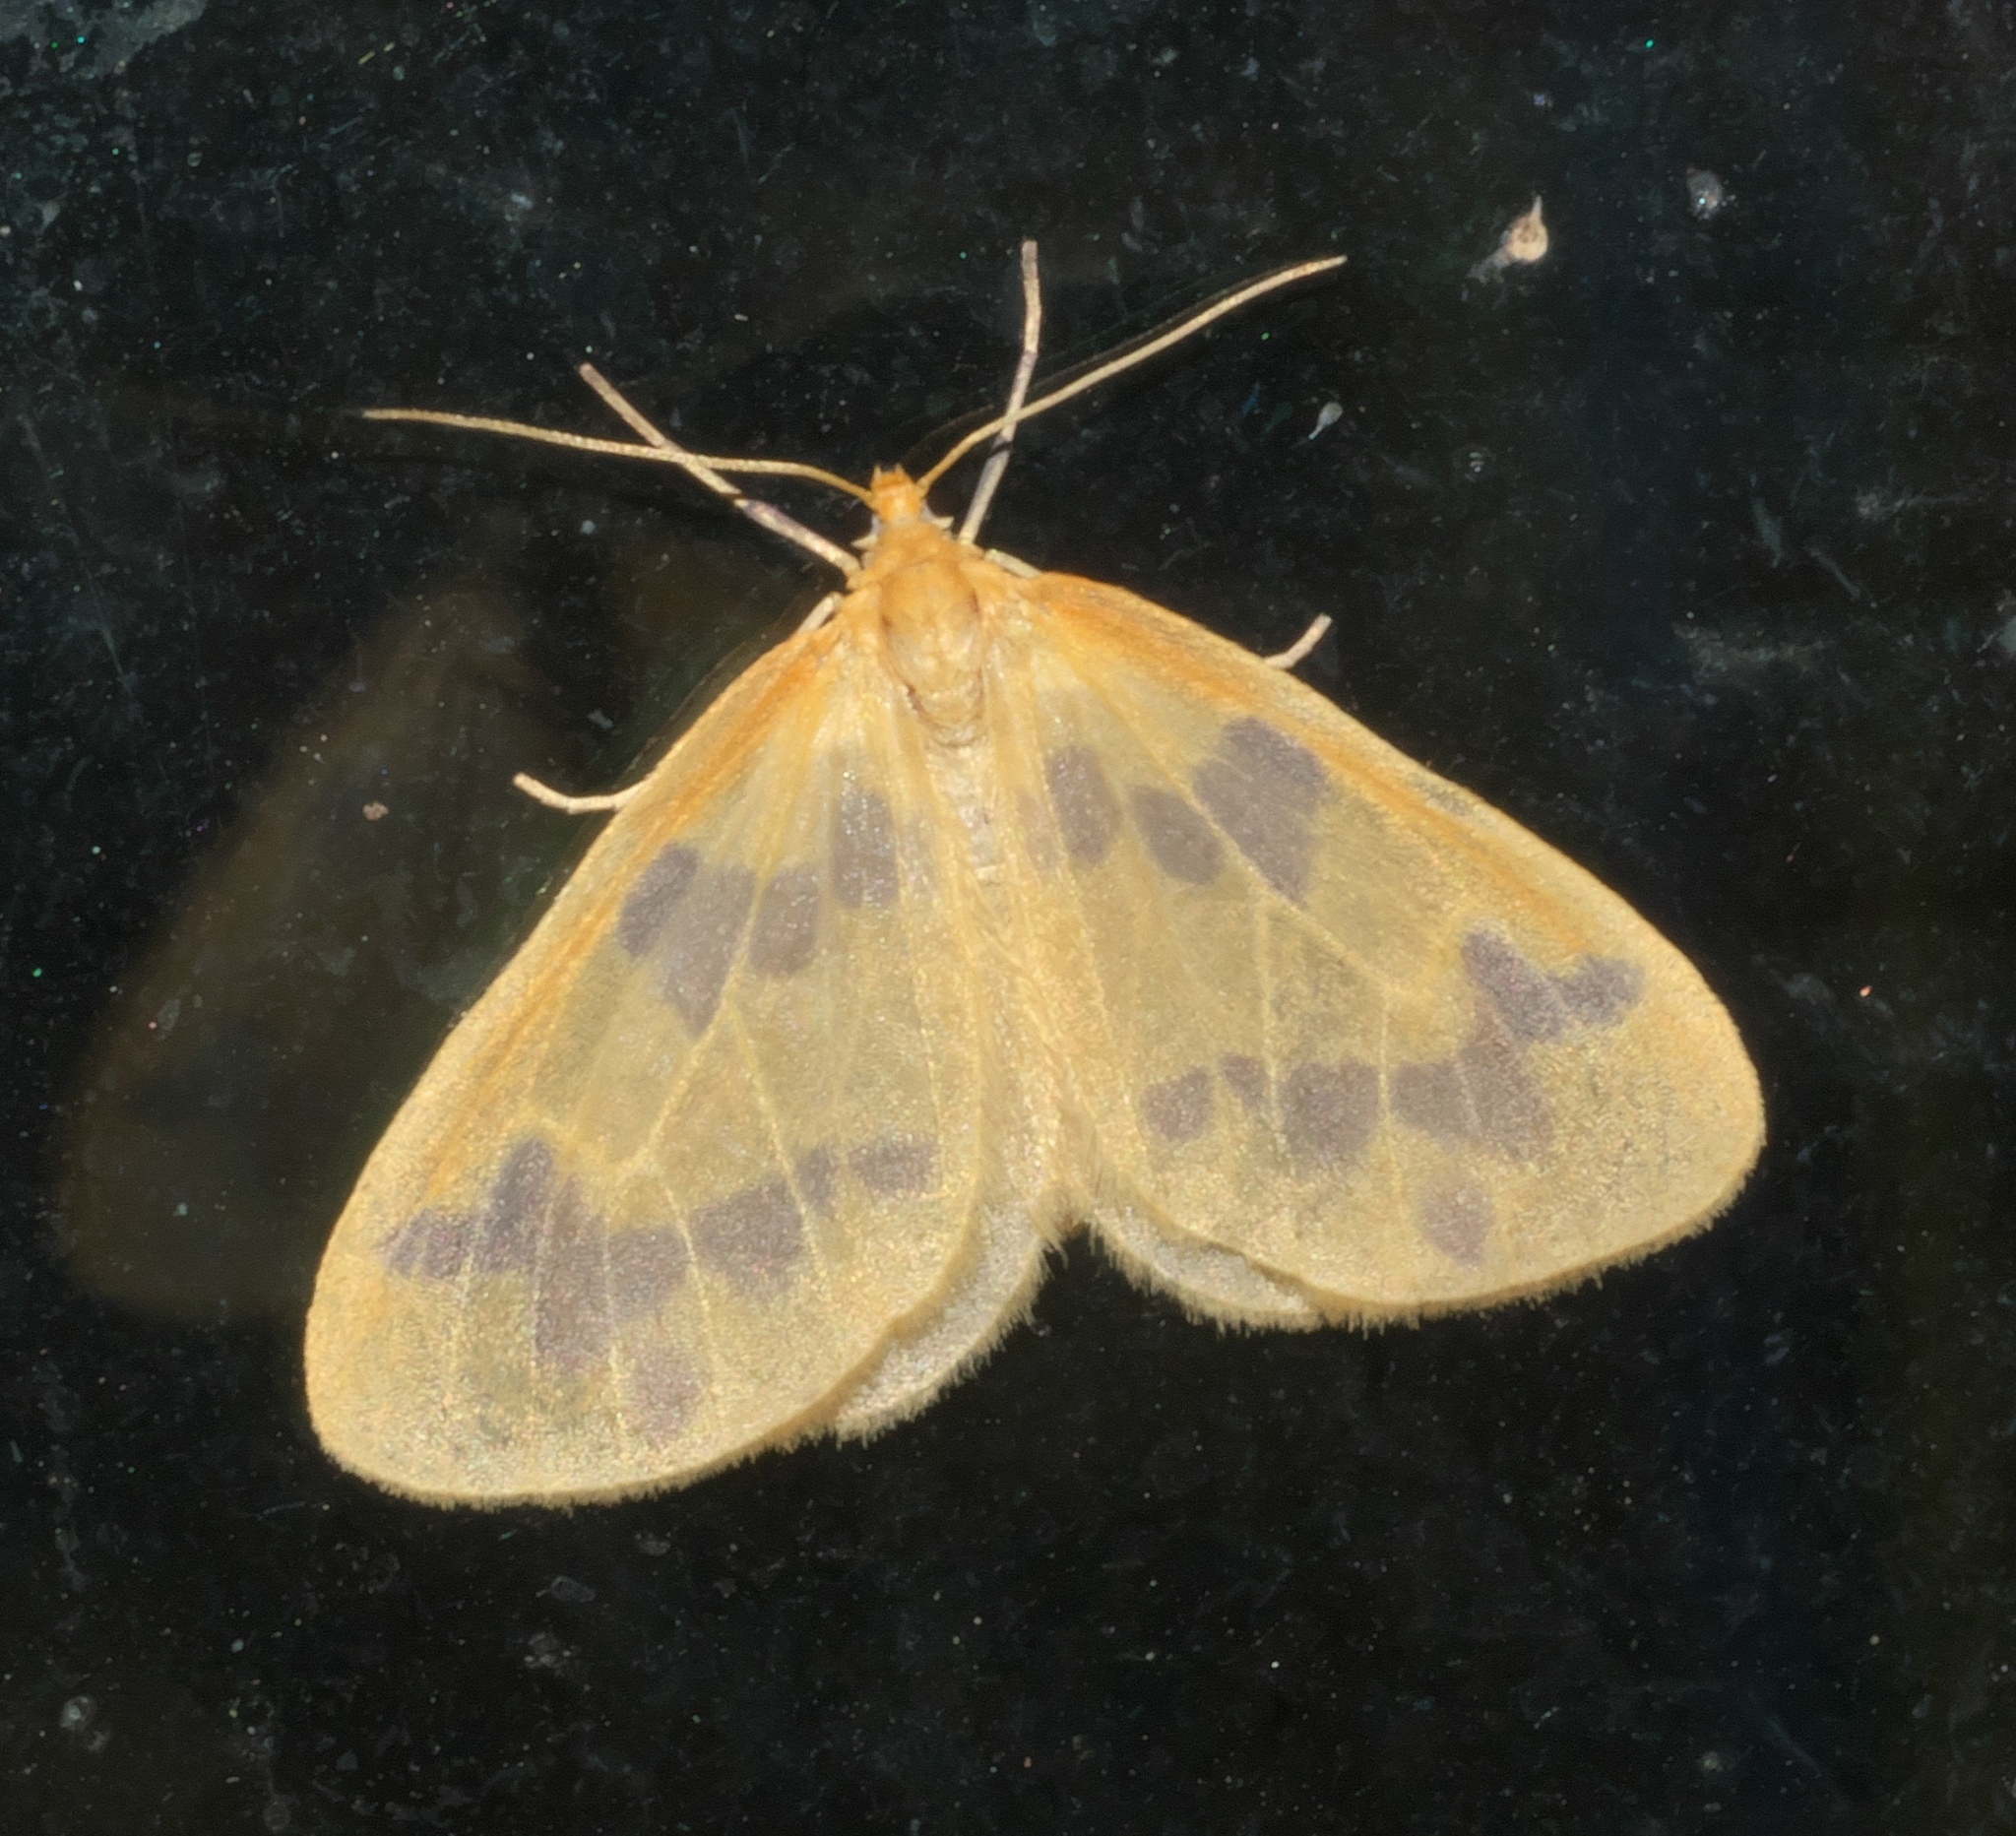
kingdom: Animalia
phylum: Arthropoda
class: Insecta
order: Lepidoptera
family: Geometridae
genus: Eubaphe
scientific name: Eubaphe mendica
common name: Beggar
